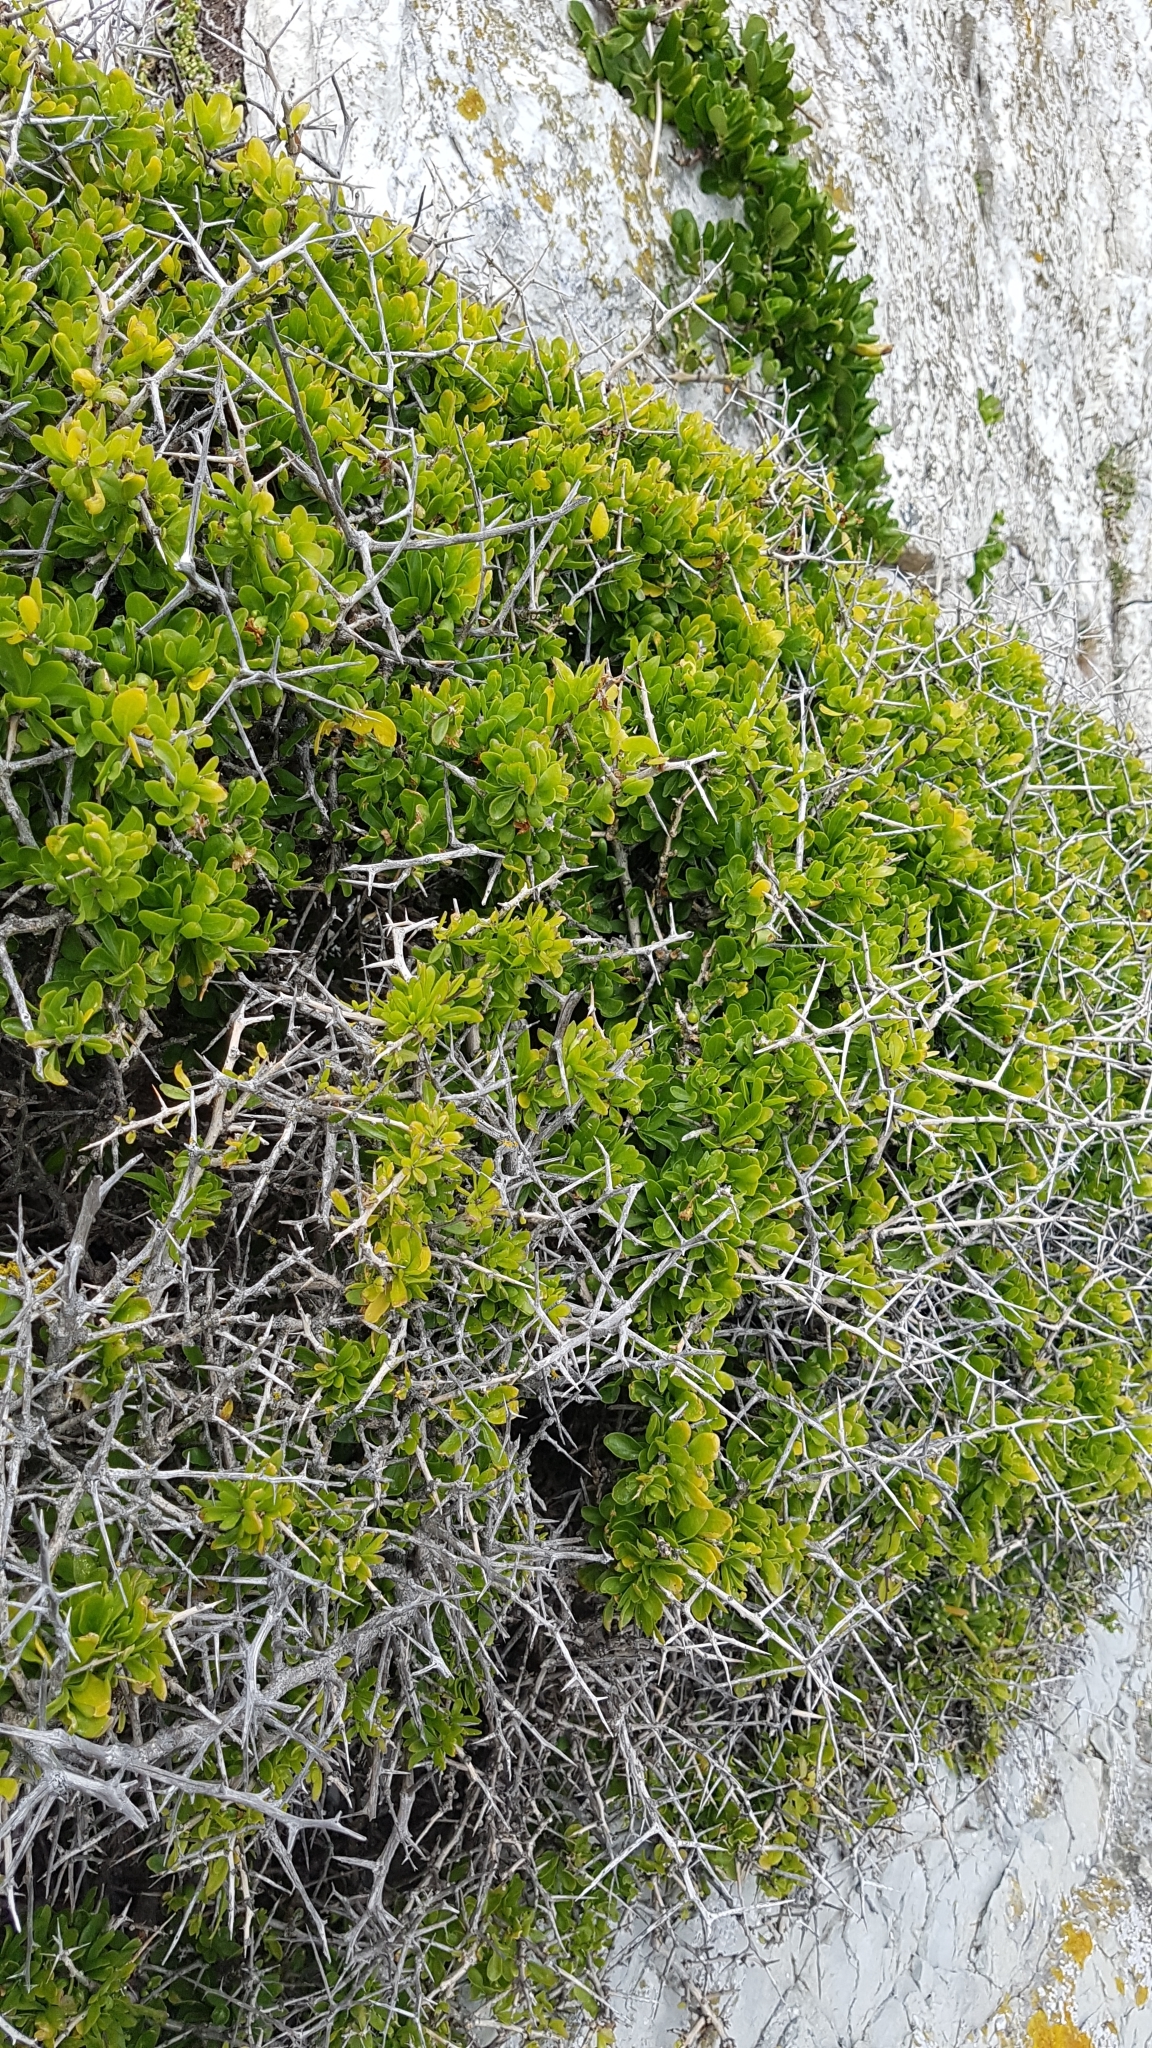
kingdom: Plantae
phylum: Tracheophyta
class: Magnoliopsida
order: Solanales
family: Solanaceae
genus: Lycium
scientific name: Lycium ferocissimum
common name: African boxthorn
